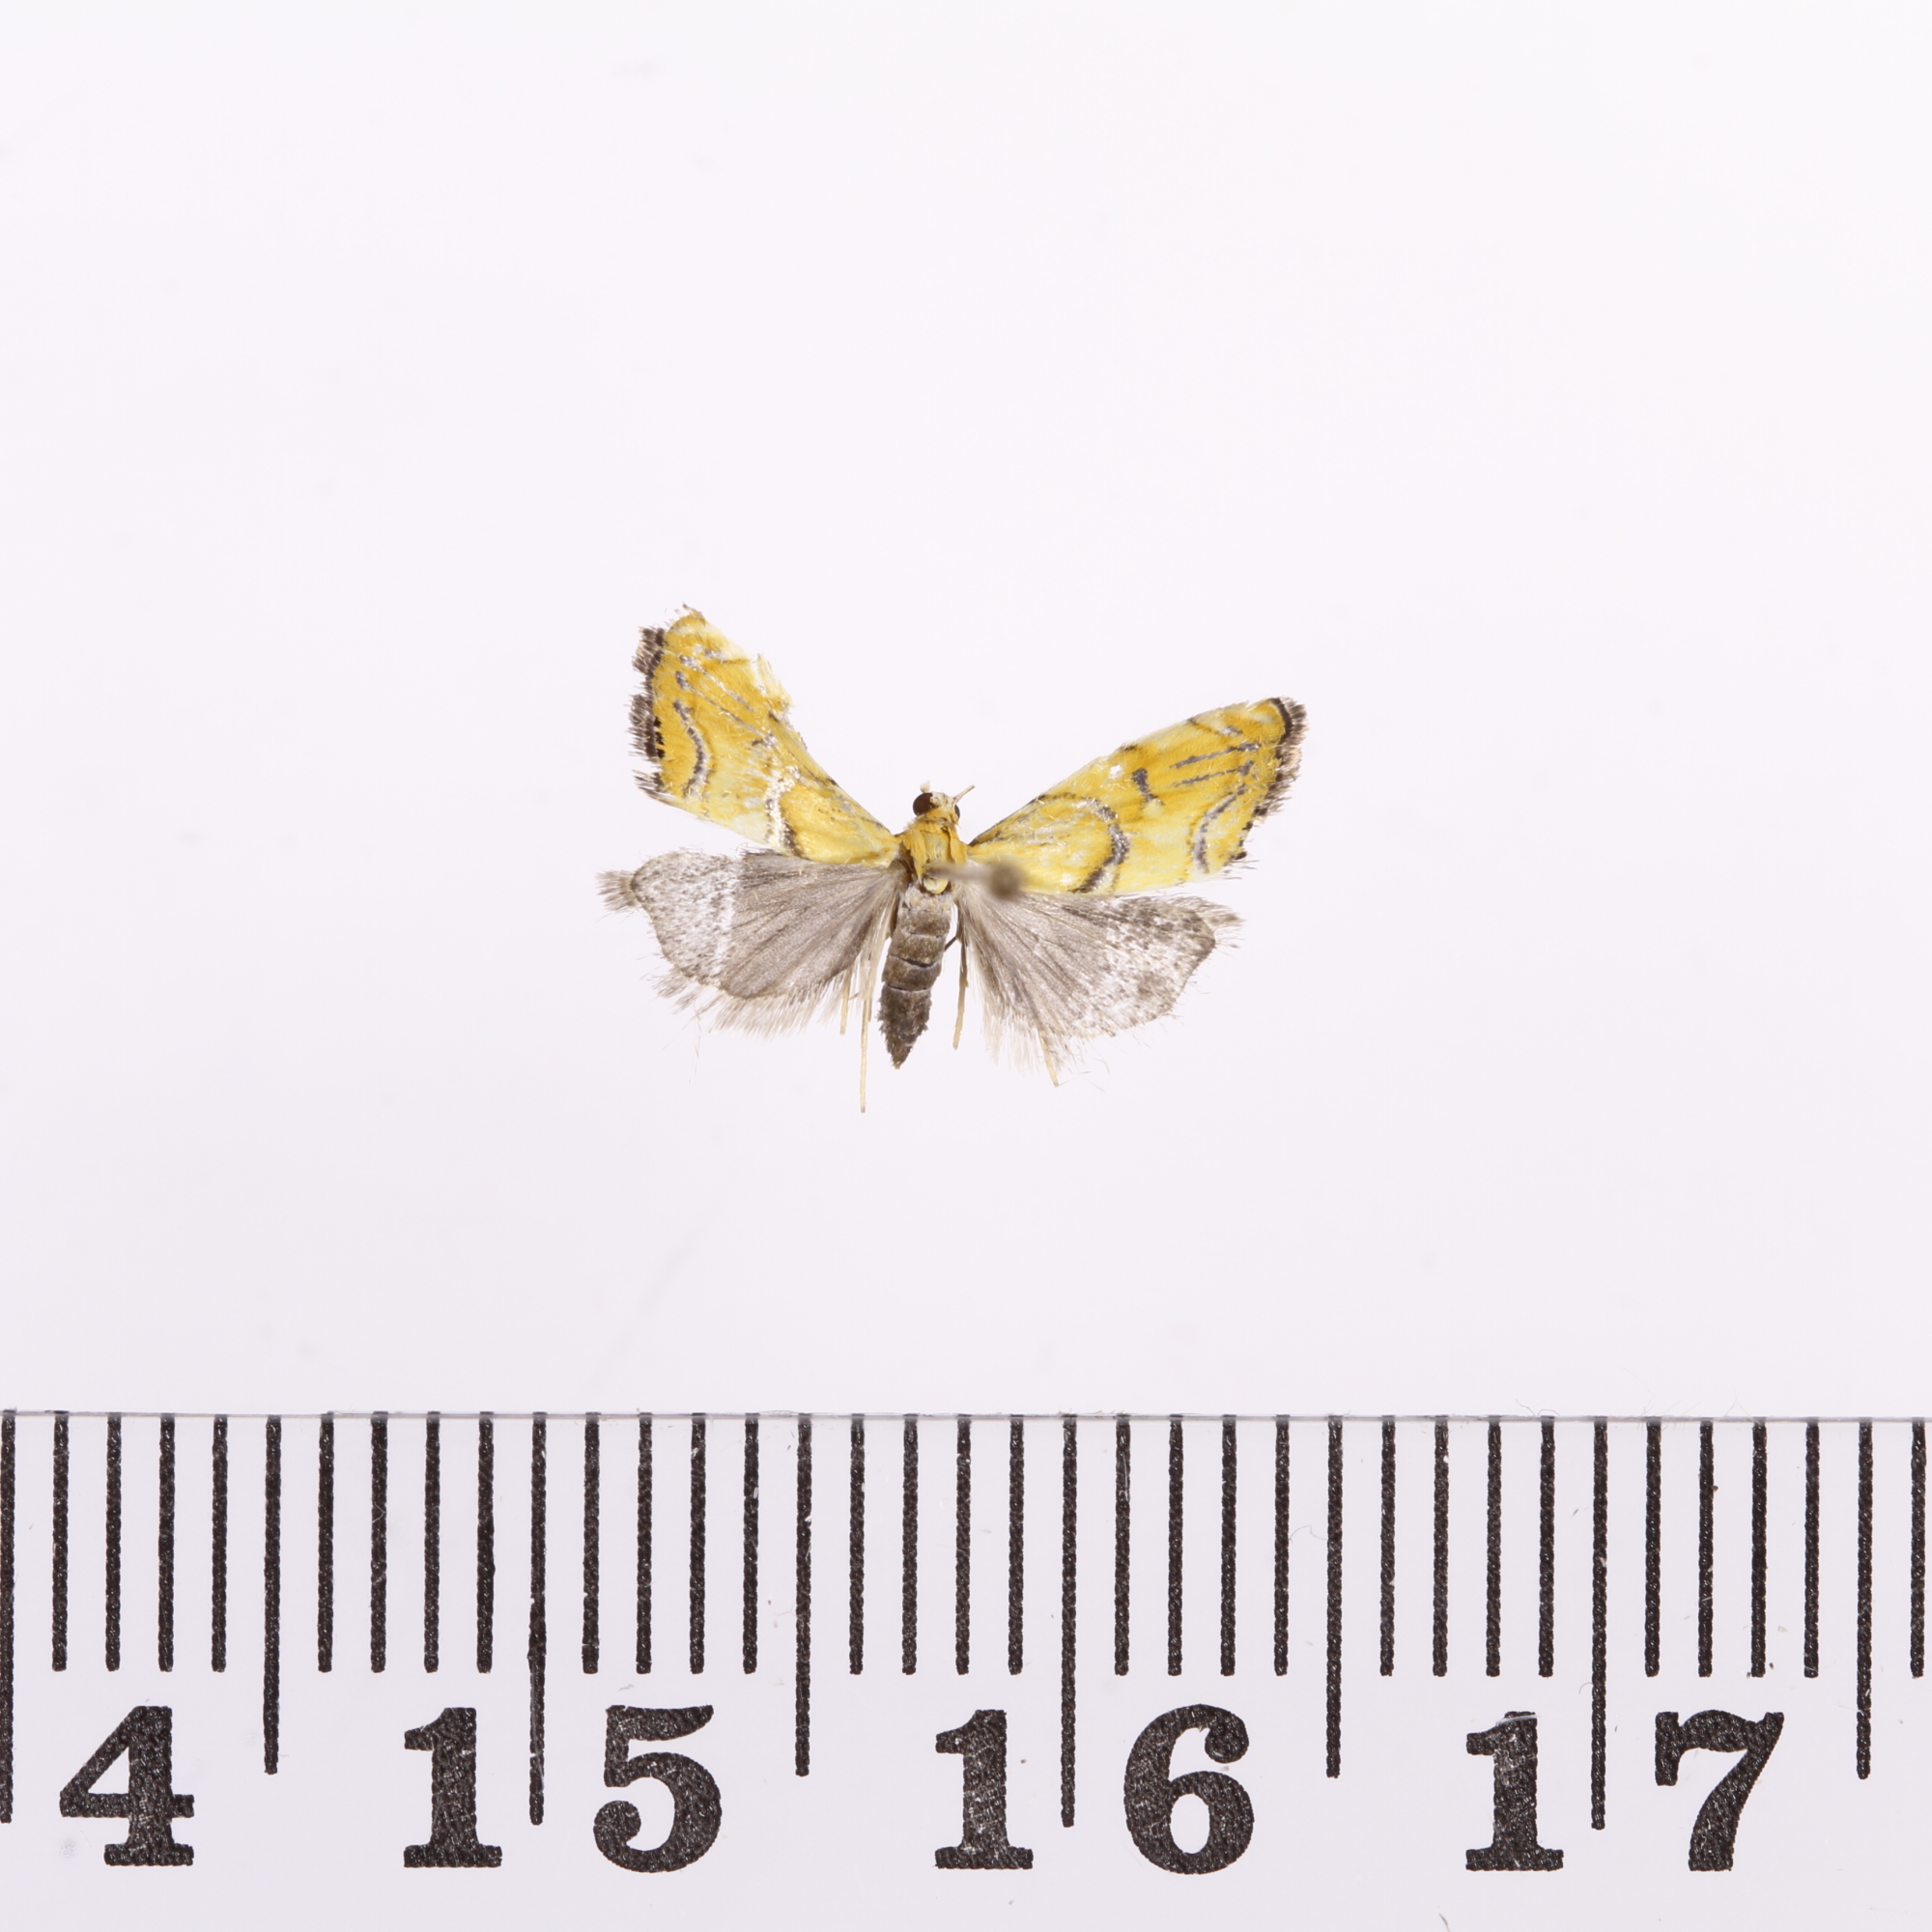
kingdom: Animalia
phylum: Arthropoda
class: Insecta
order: Lepidoptera
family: Crambidae
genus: Glaucocharis
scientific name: Glaucocharis auriscriptella
